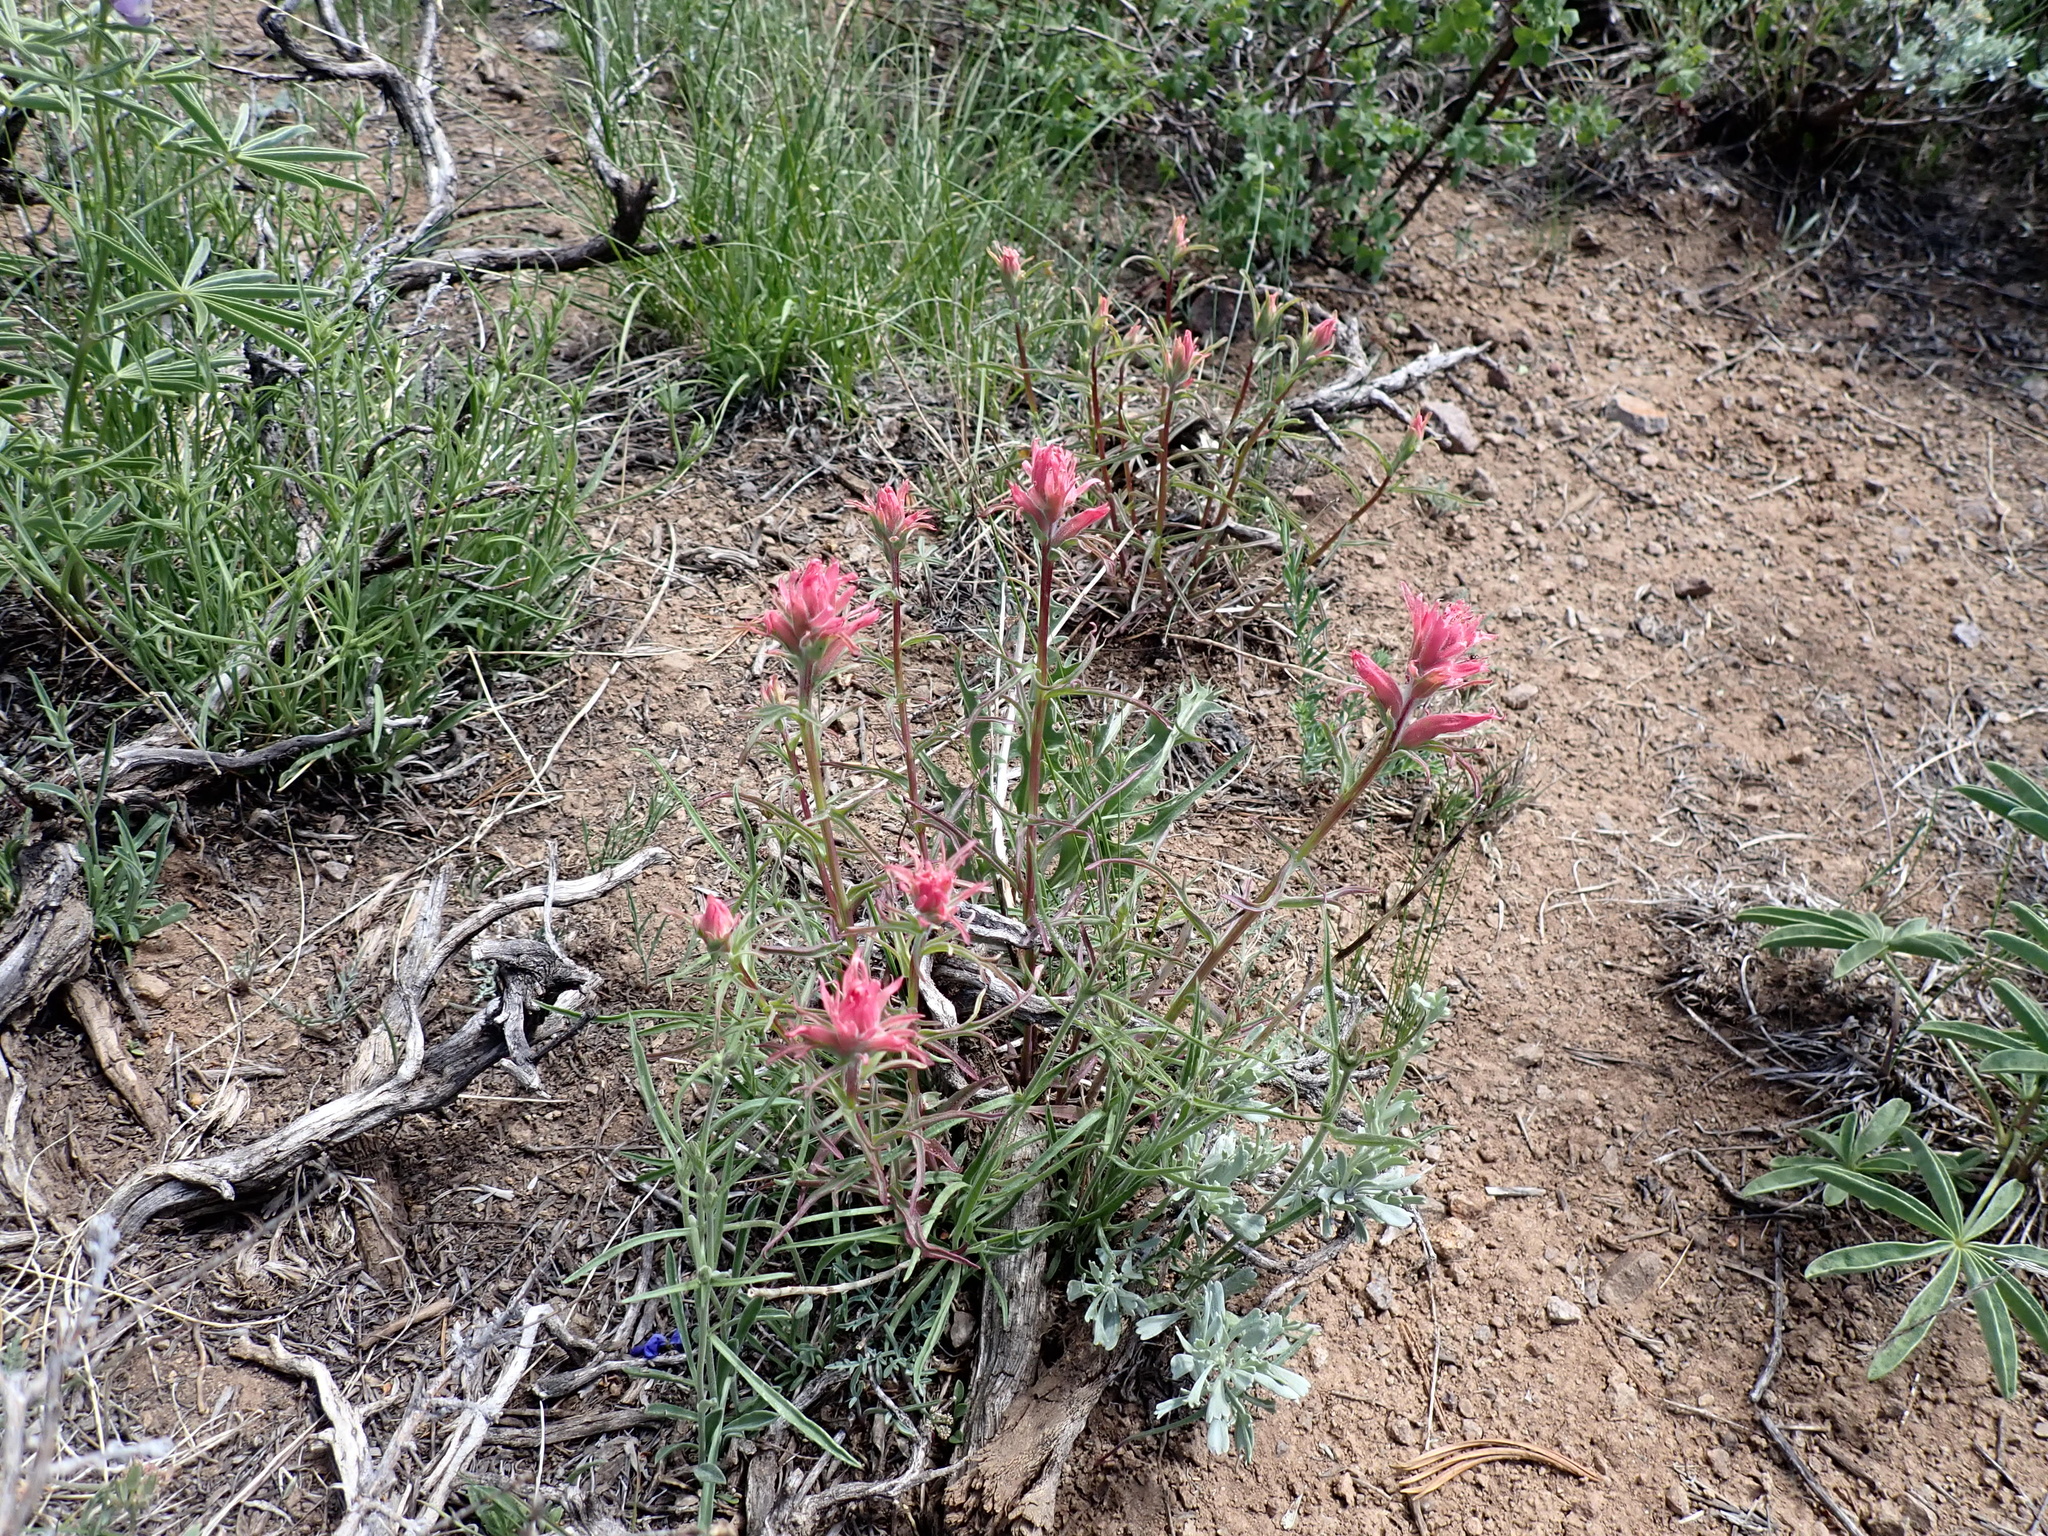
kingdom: Plantae
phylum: Tracheophyta
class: Magnoliopsida
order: Lamiales
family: Orobanchaceae
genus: Castilleja
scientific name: Castilleja linariifolia
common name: Wyoming paintbrush
